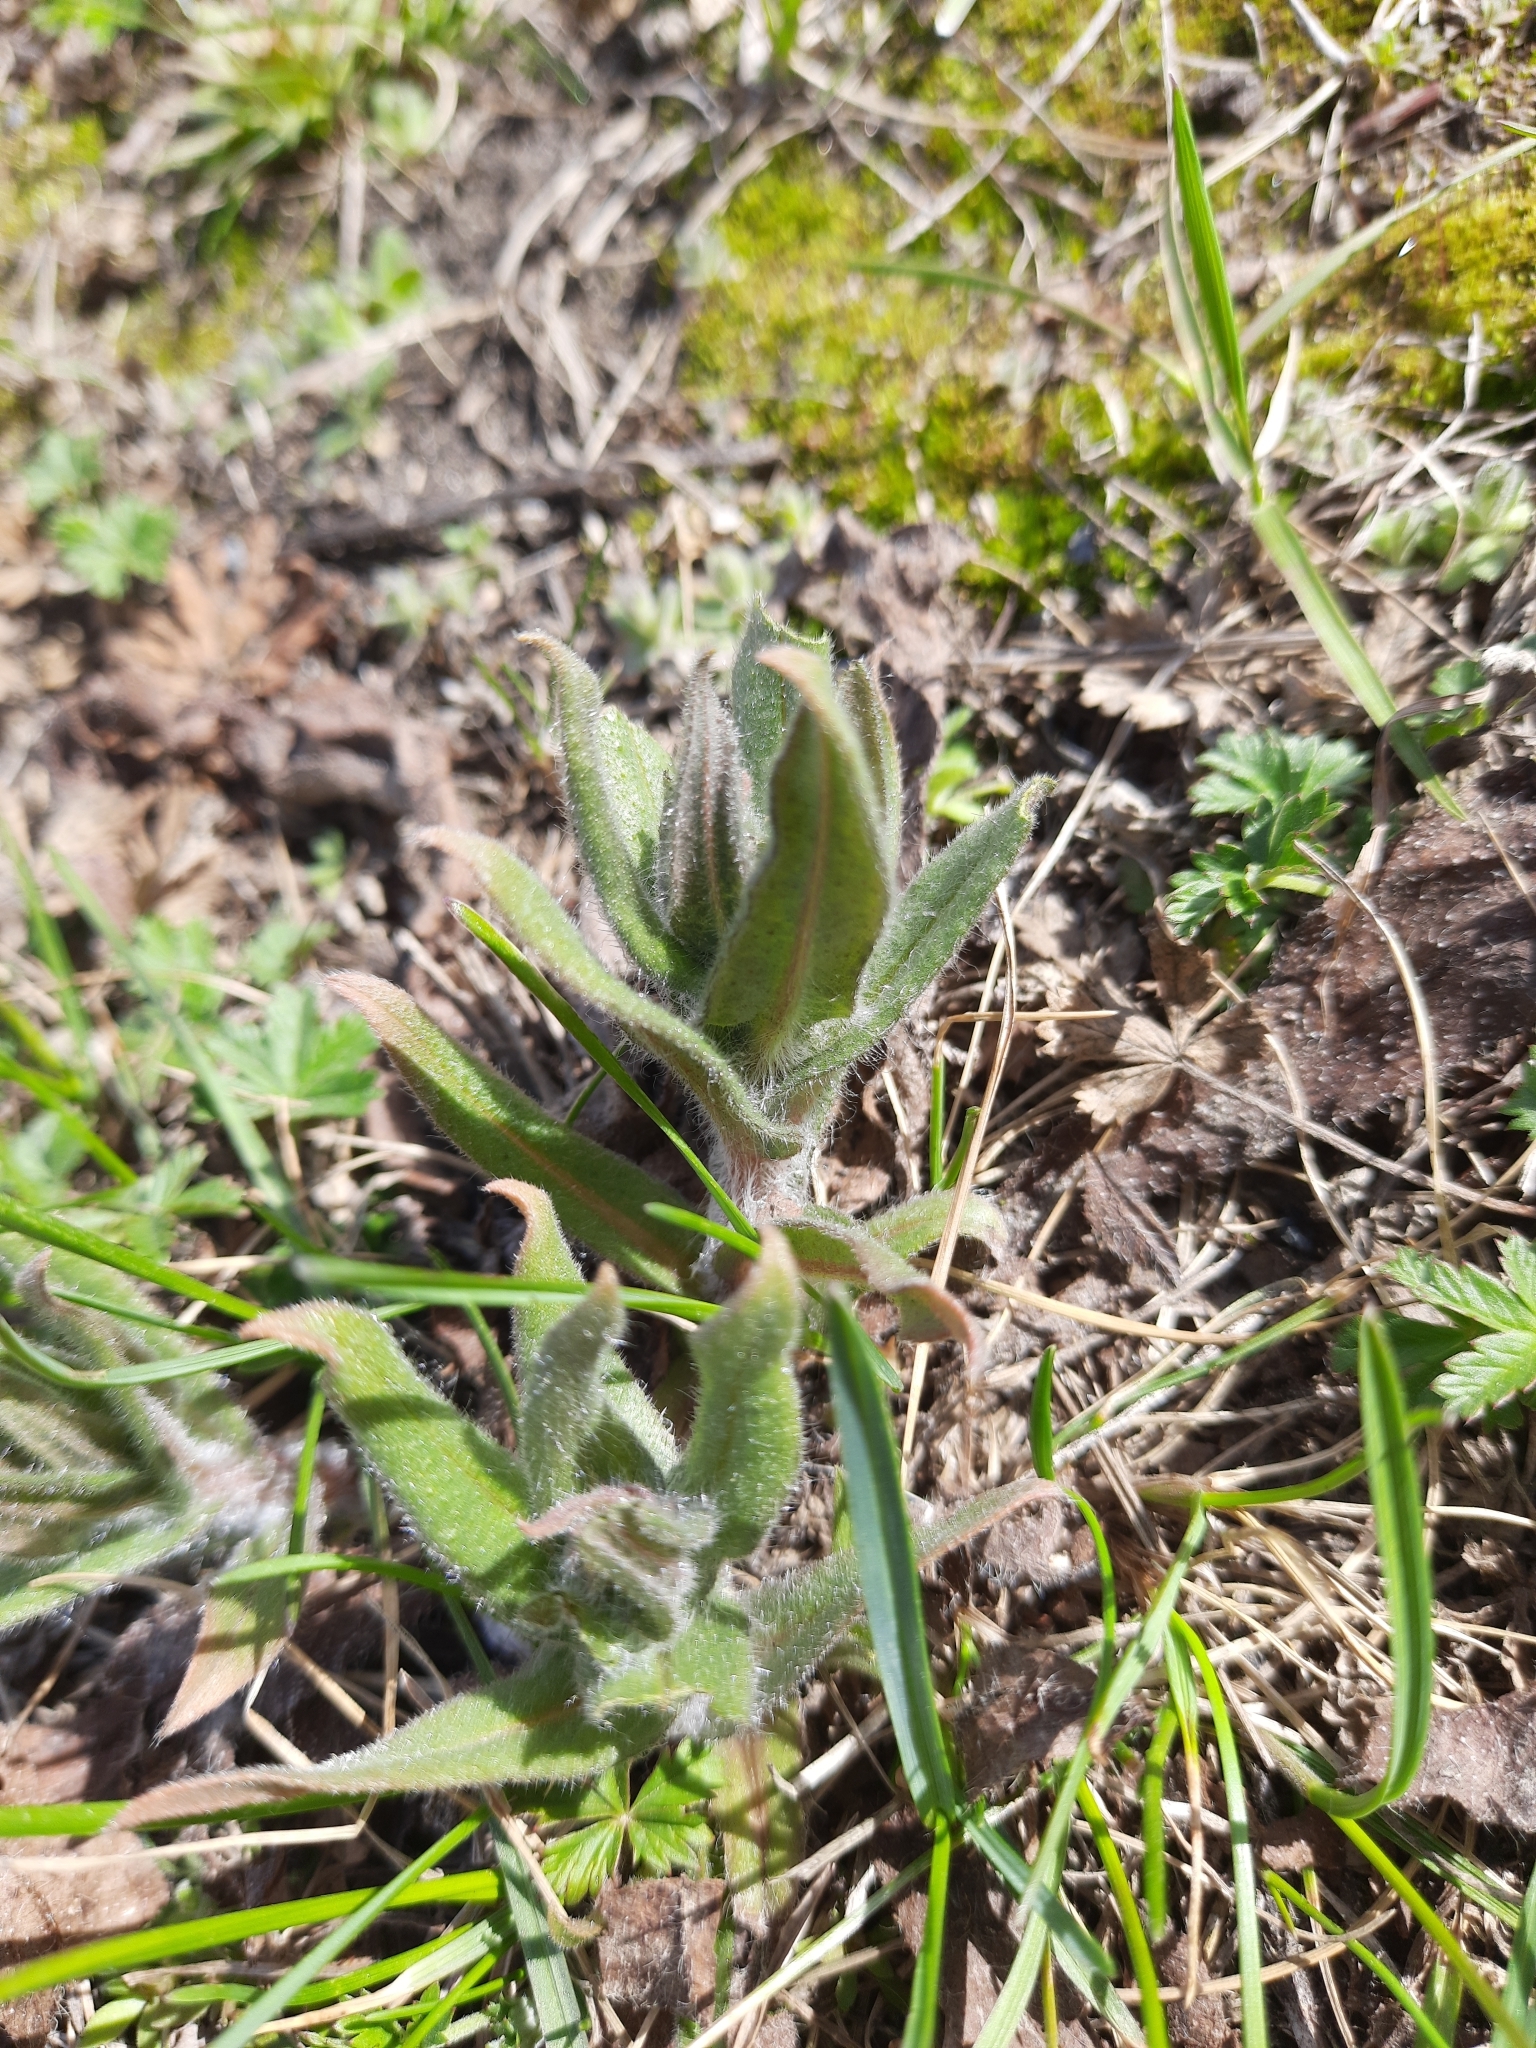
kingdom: Plantae
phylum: Tracheophyta
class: Magnoliopsida
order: Boraginales
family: Boraginaceae
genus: Nonea
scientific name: Nonea pulla
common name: Brown nonea
